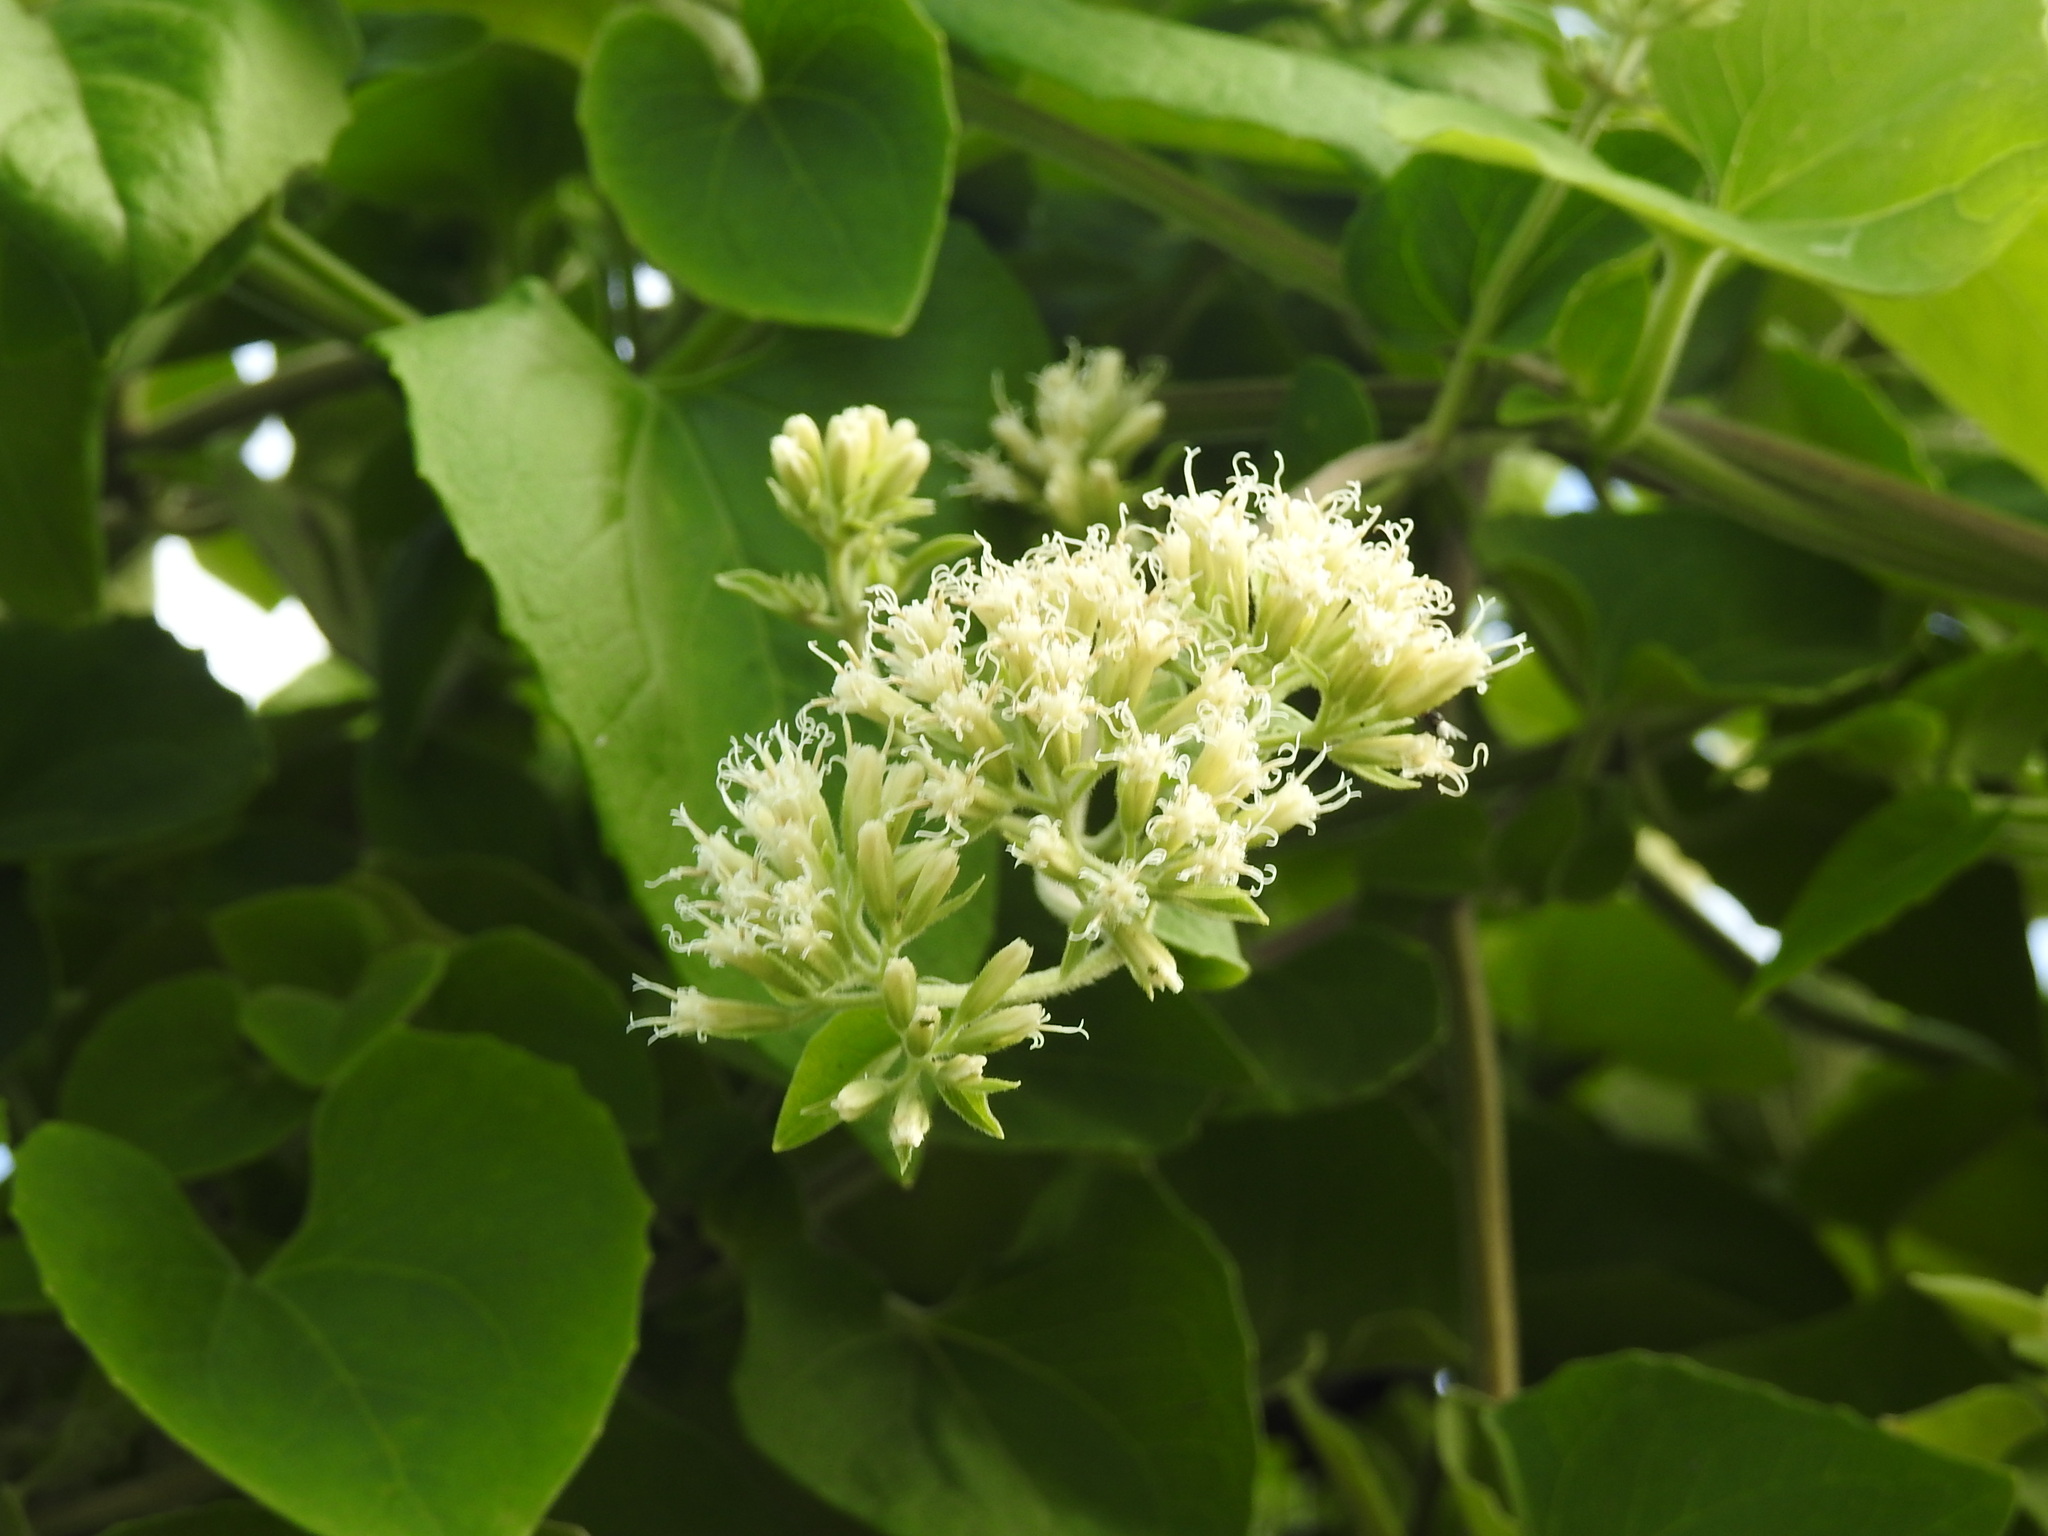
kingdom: Plantae
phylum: Tracheophyta
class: Magnoliopsida
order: Asterales
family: Asteraceae
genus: Mikania
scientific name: Mikania cordifolia
